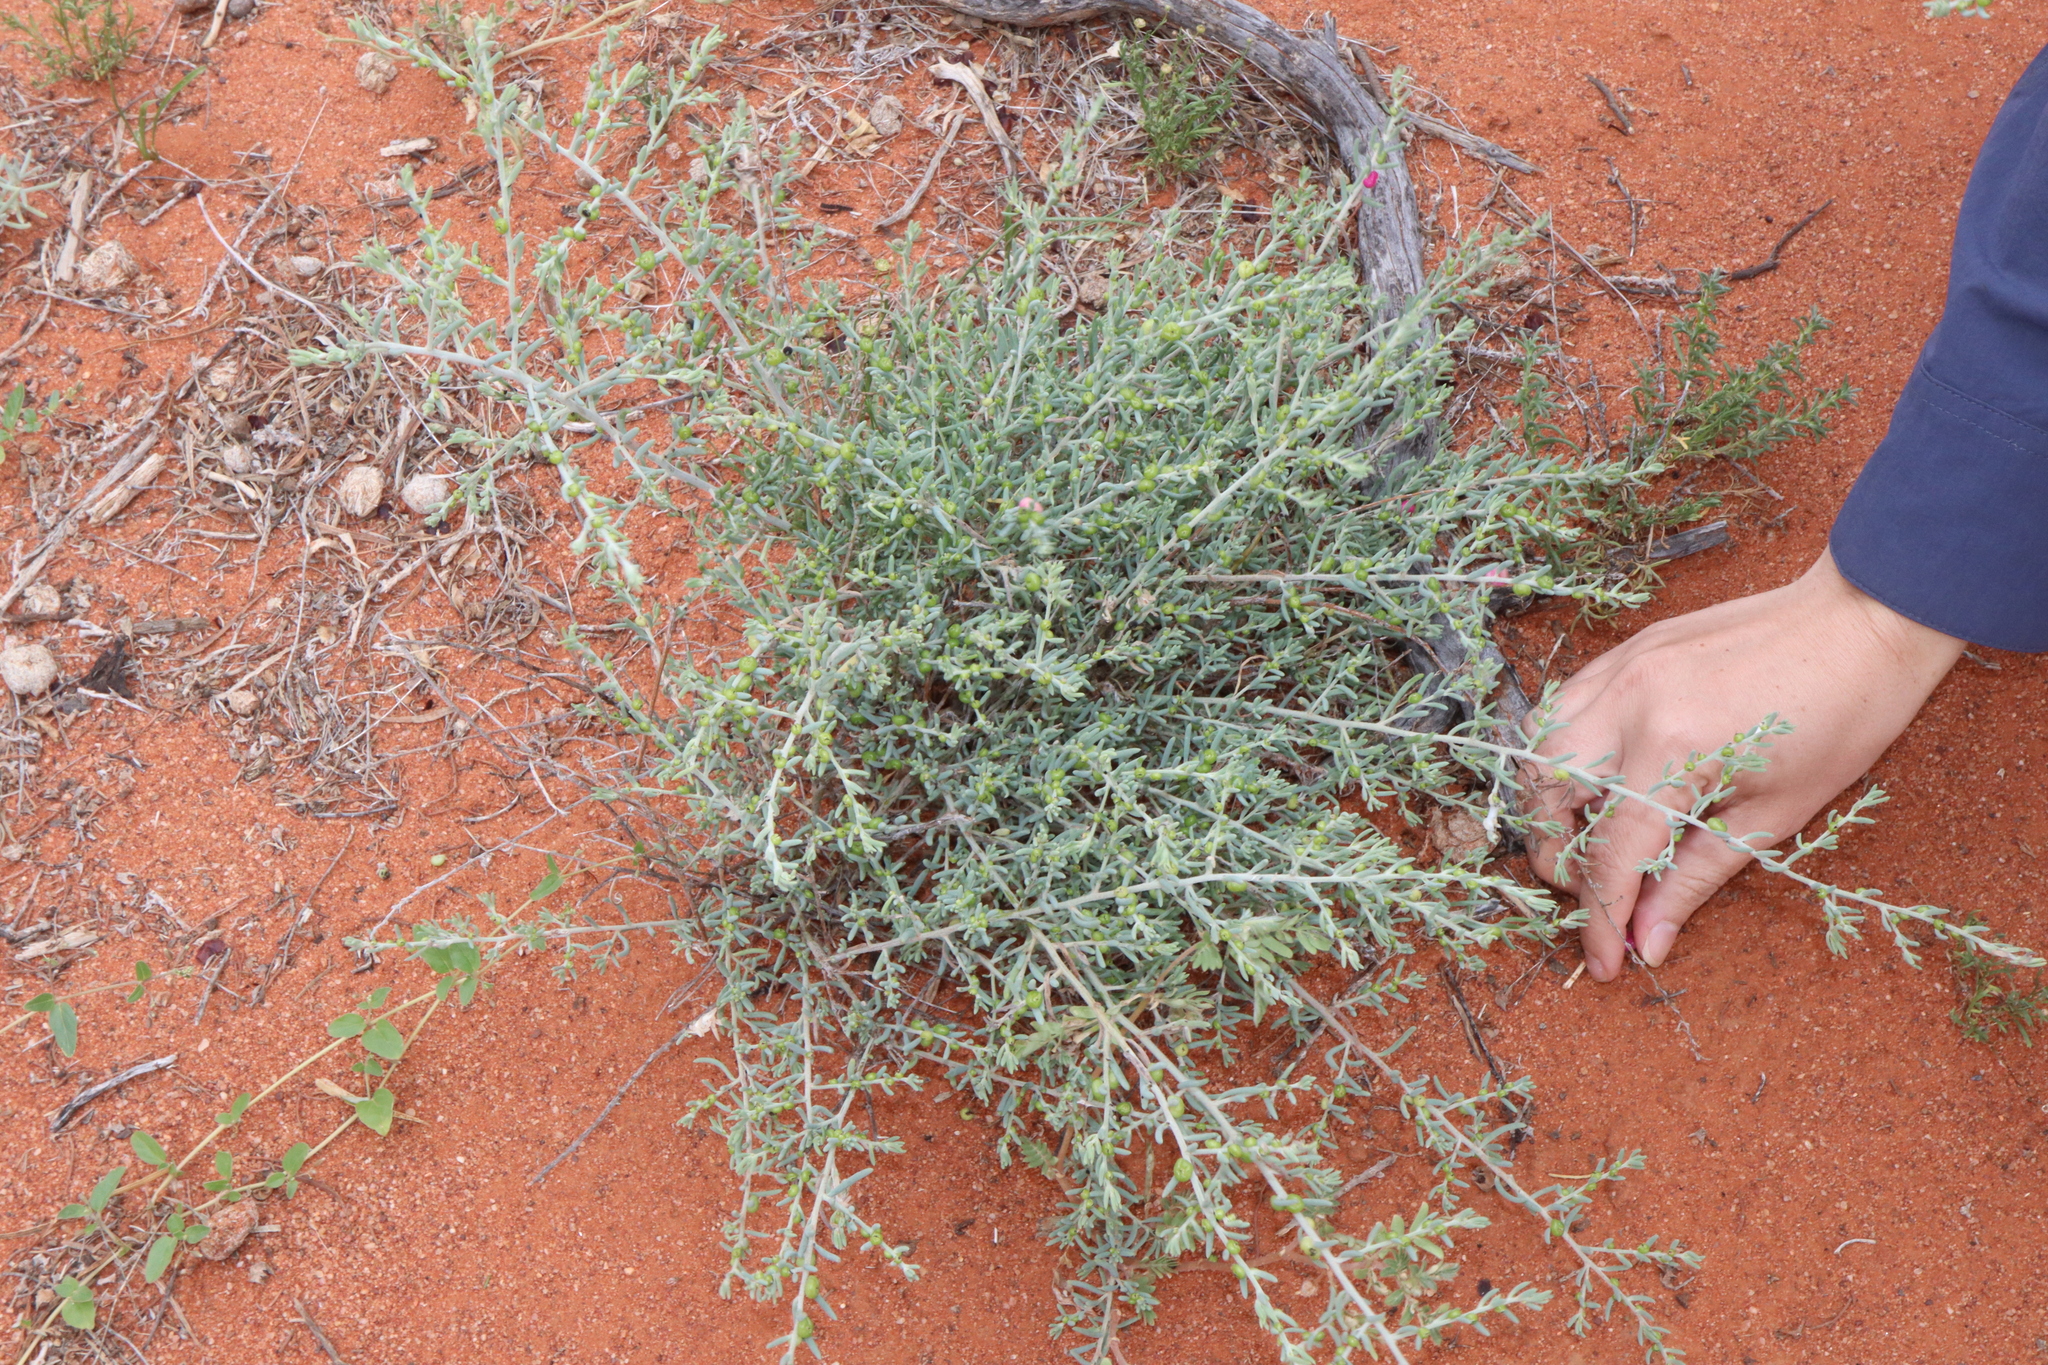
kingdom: Plantae
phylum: Tracheophyta
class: Magnoliopsida
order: Caryophyllales
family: Amaranthaceae
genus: Enchylaena
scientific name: Enchylaena tomentosa
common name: Ruby saltbush
